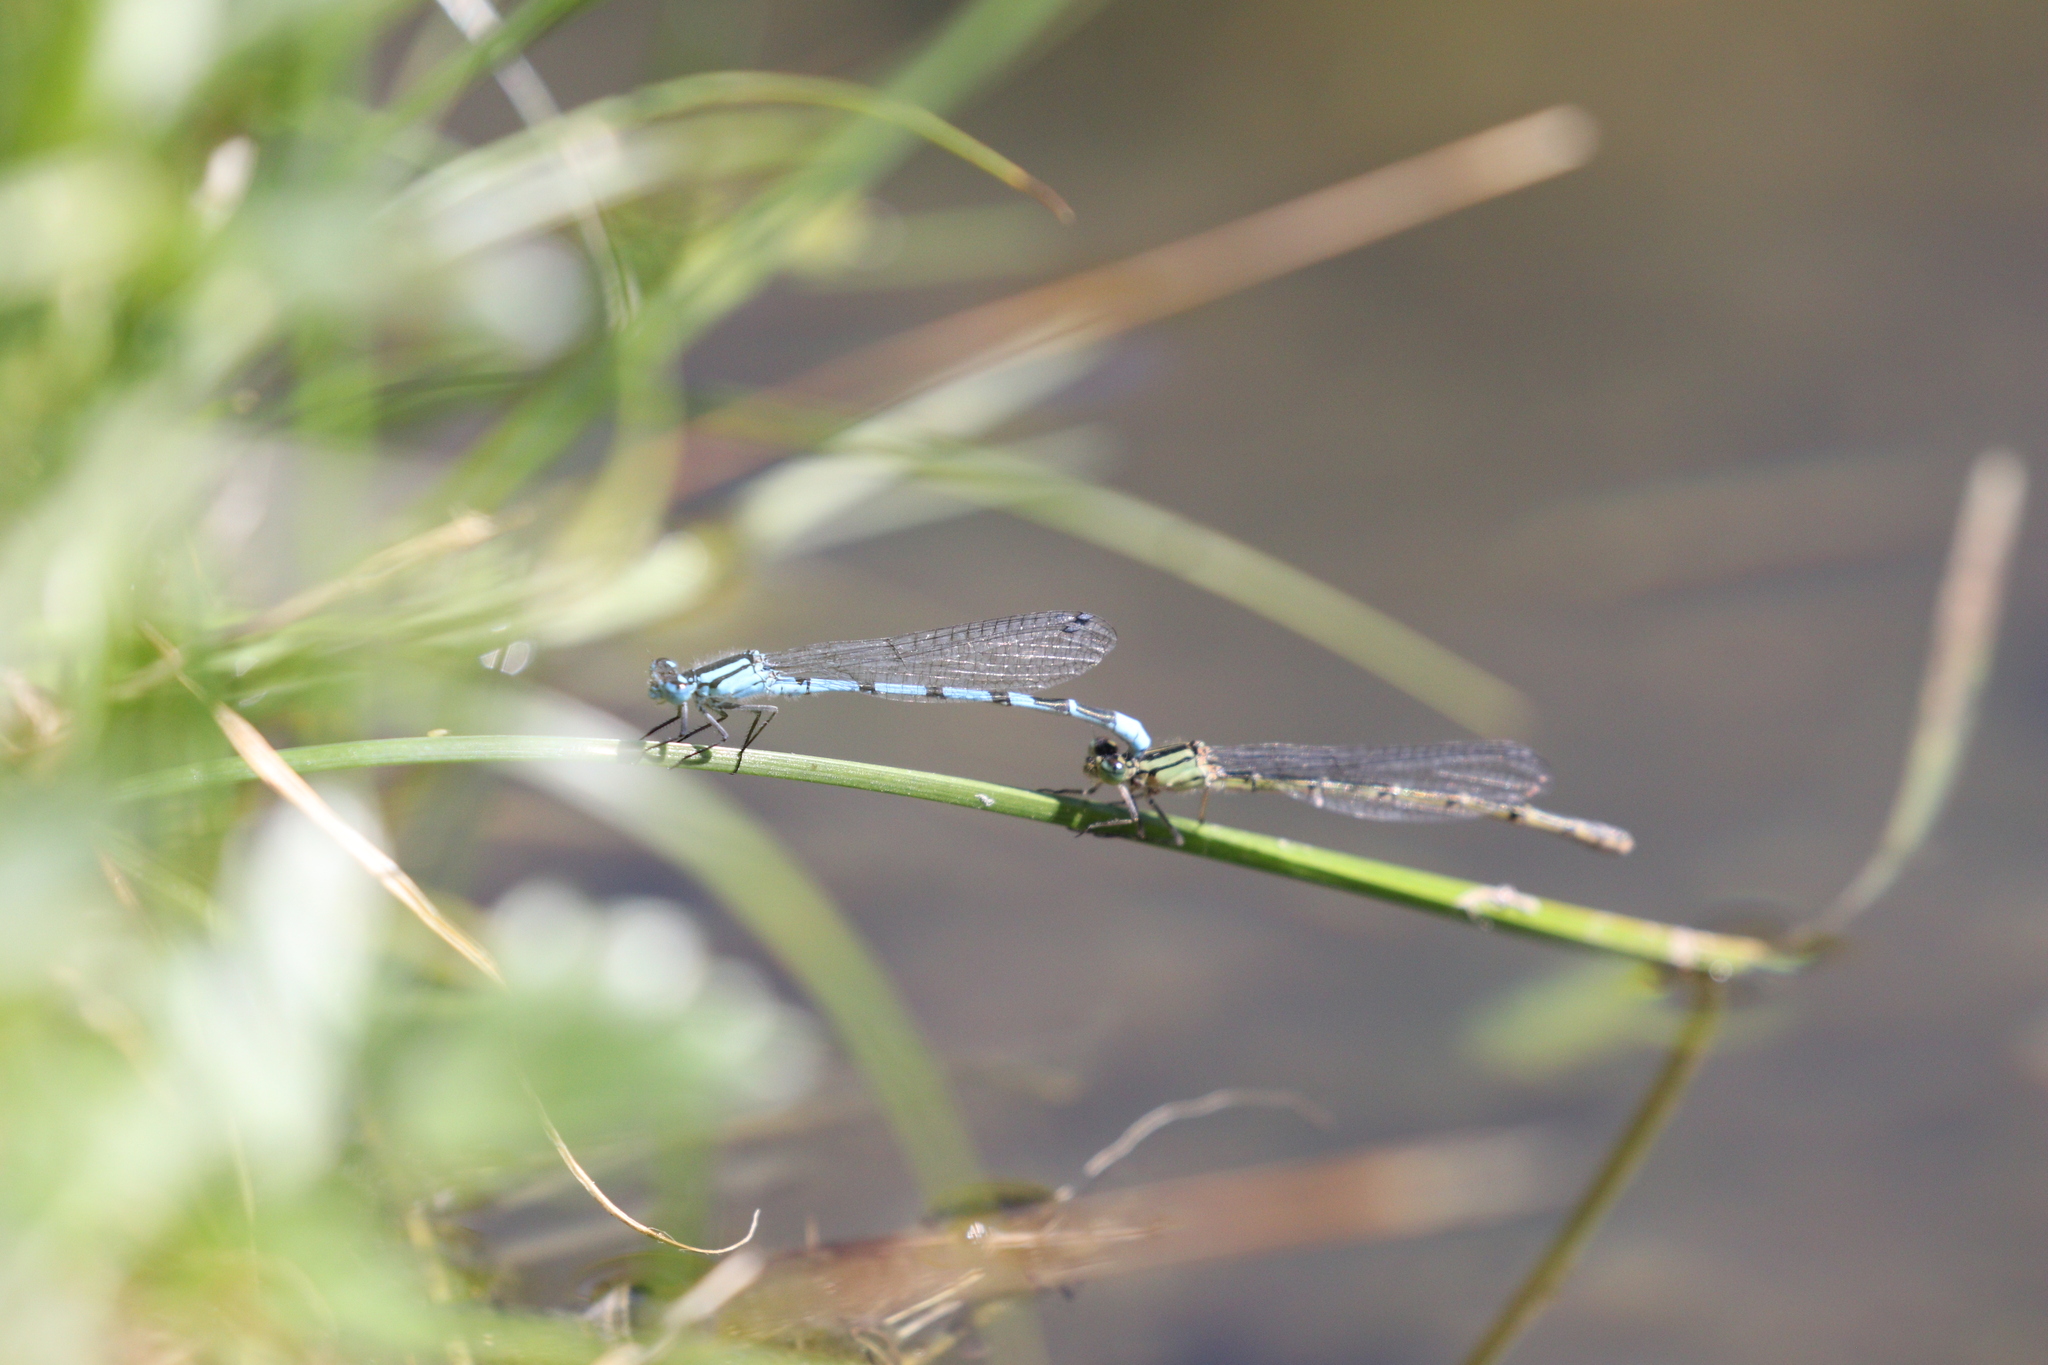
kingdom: Animalia
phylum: Arthropoda
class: Insecta
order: Odonata
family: Coenagrionidae
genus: Enallagma
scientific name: Enallagma cyathigerum
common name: Common blue damselfly
